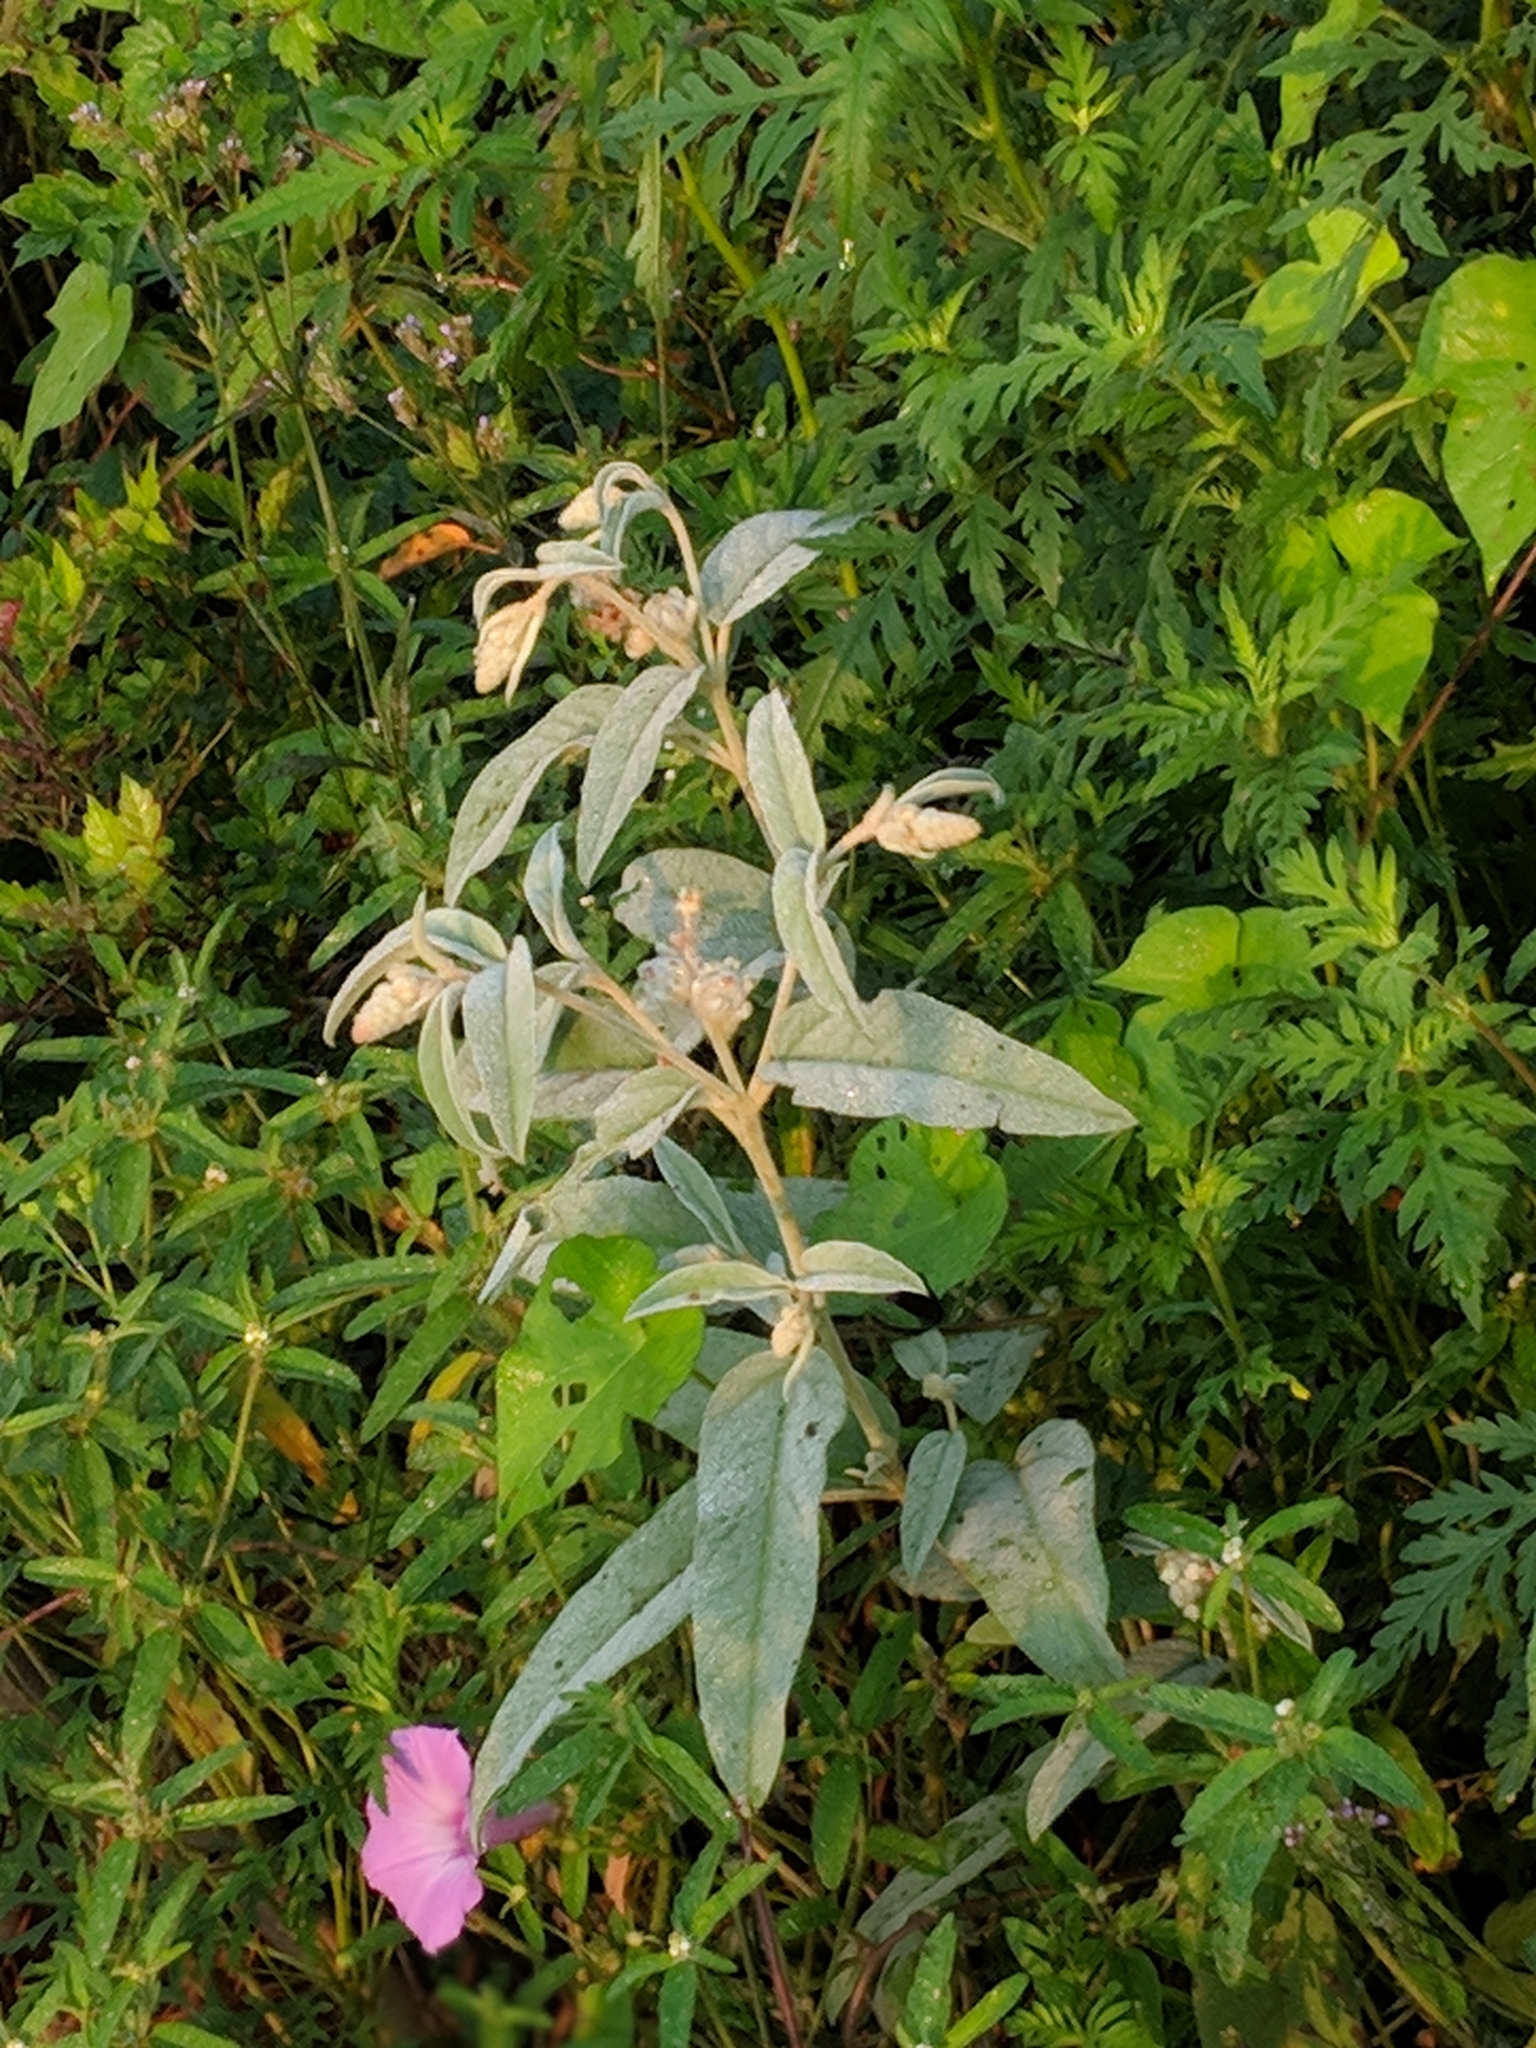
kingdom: Plantae
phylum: Tracheophyta
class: Magnoliopsida
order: Malpighiales
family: Euphorbiaceae
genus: Croton
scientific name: Croton lindheimeri
